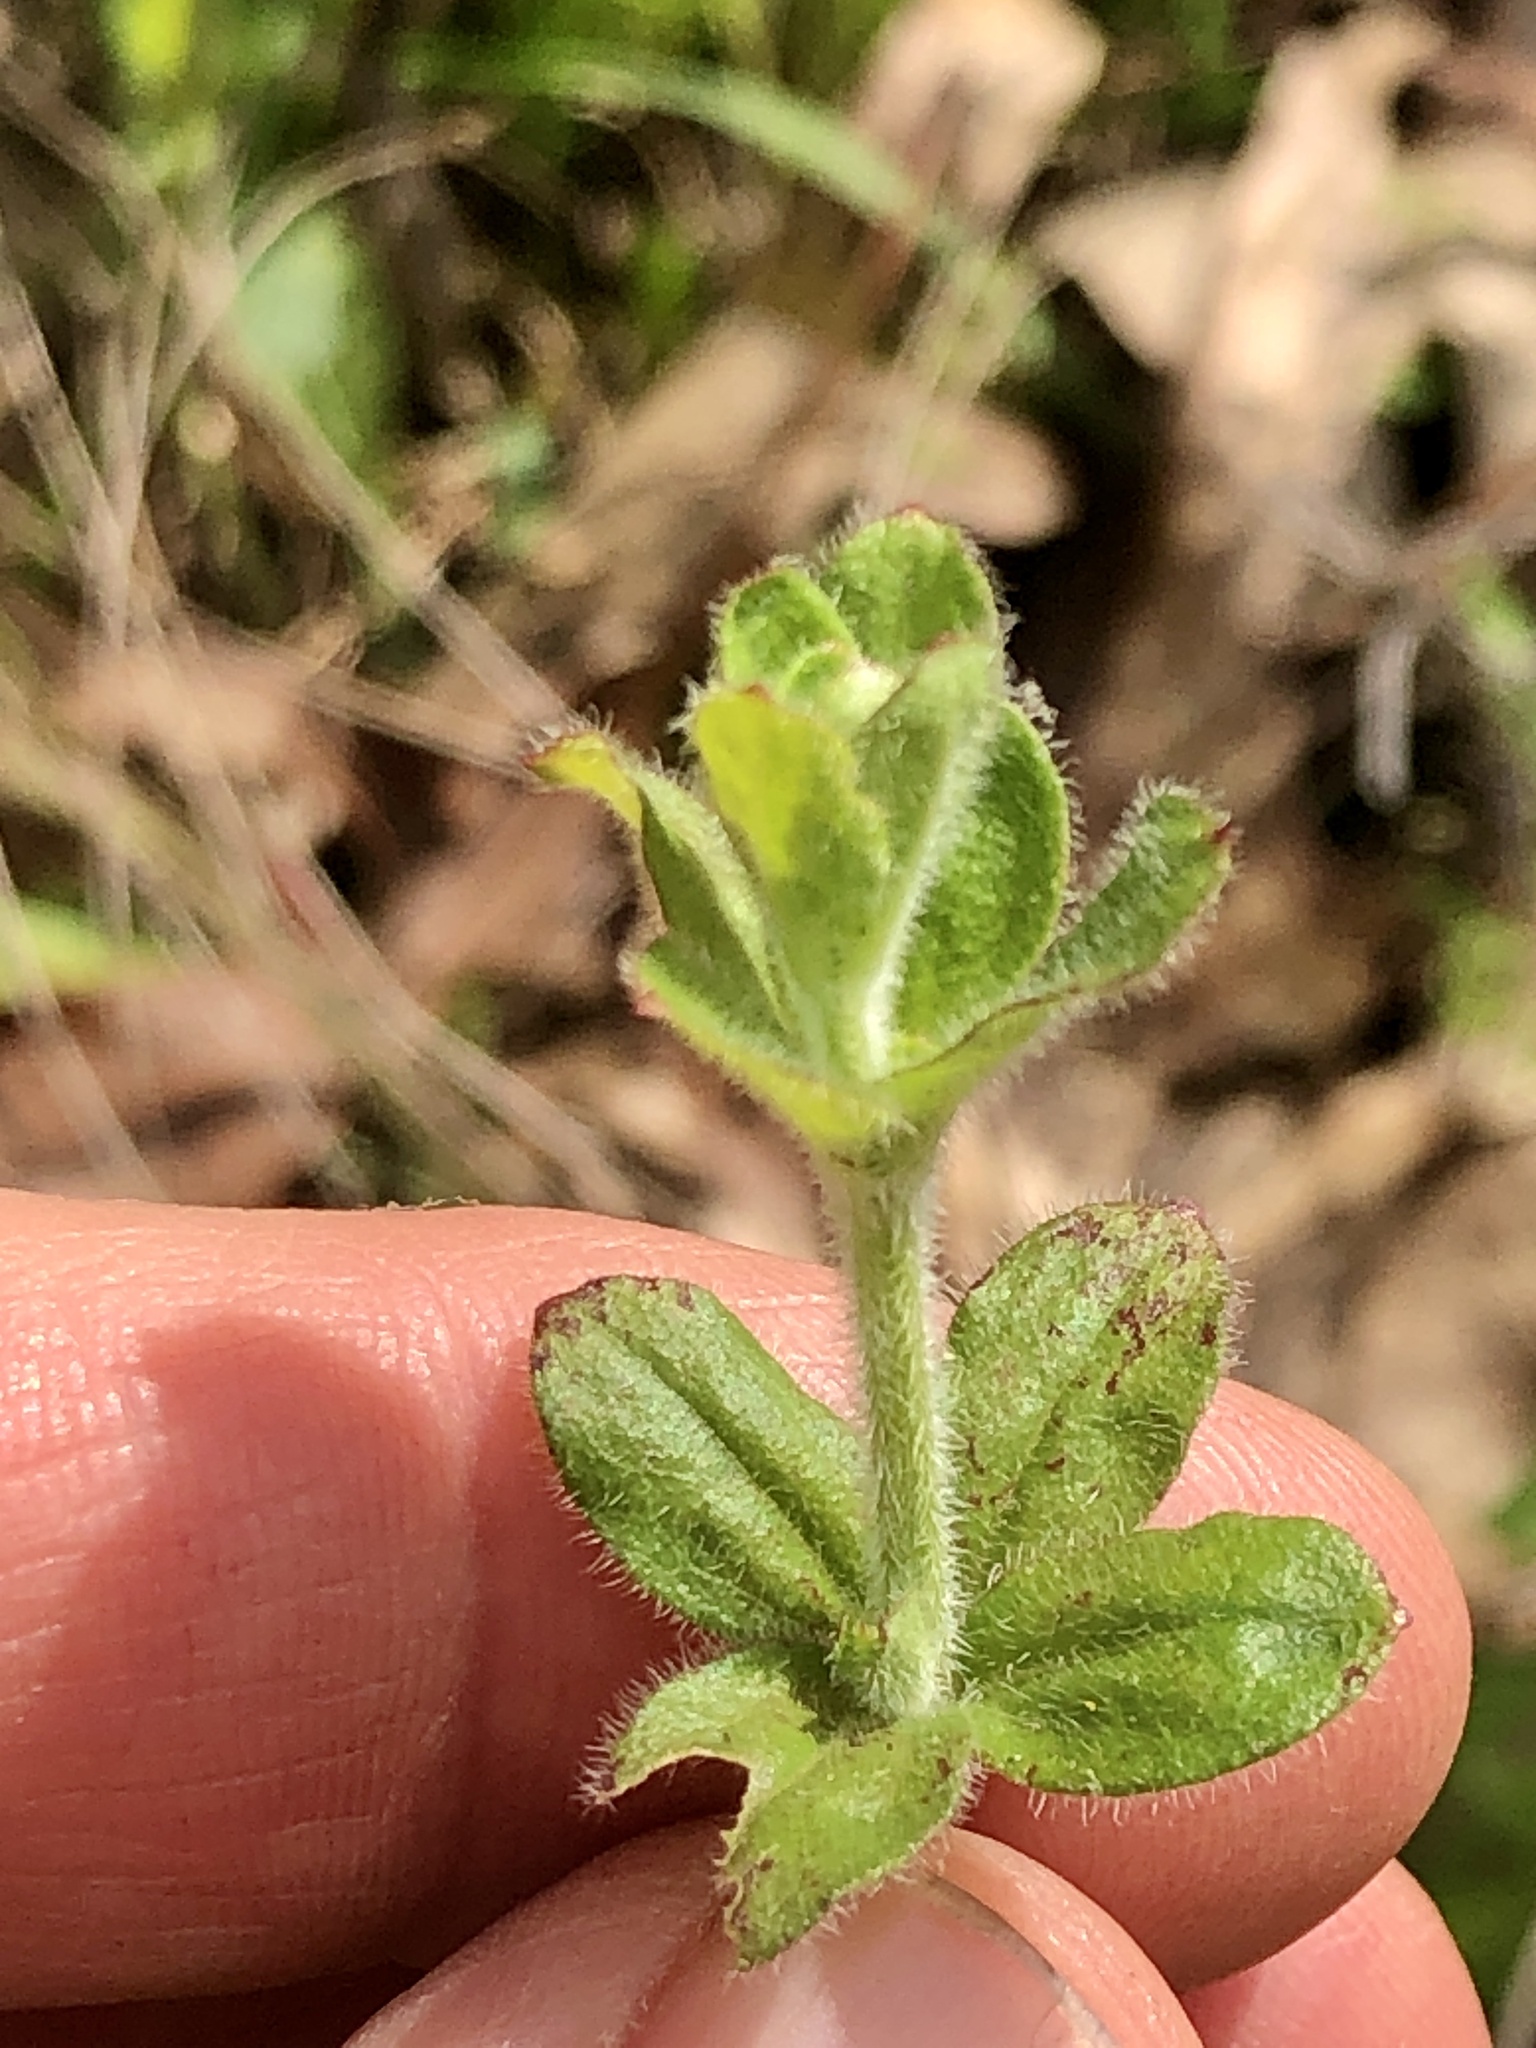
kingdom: Plantae
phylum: Tracheophyta
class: Magnoliopsida
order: Gentianales
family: Rubiaceae
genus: Galium
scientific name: Galium pilosum
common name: Hairy bedstraw
